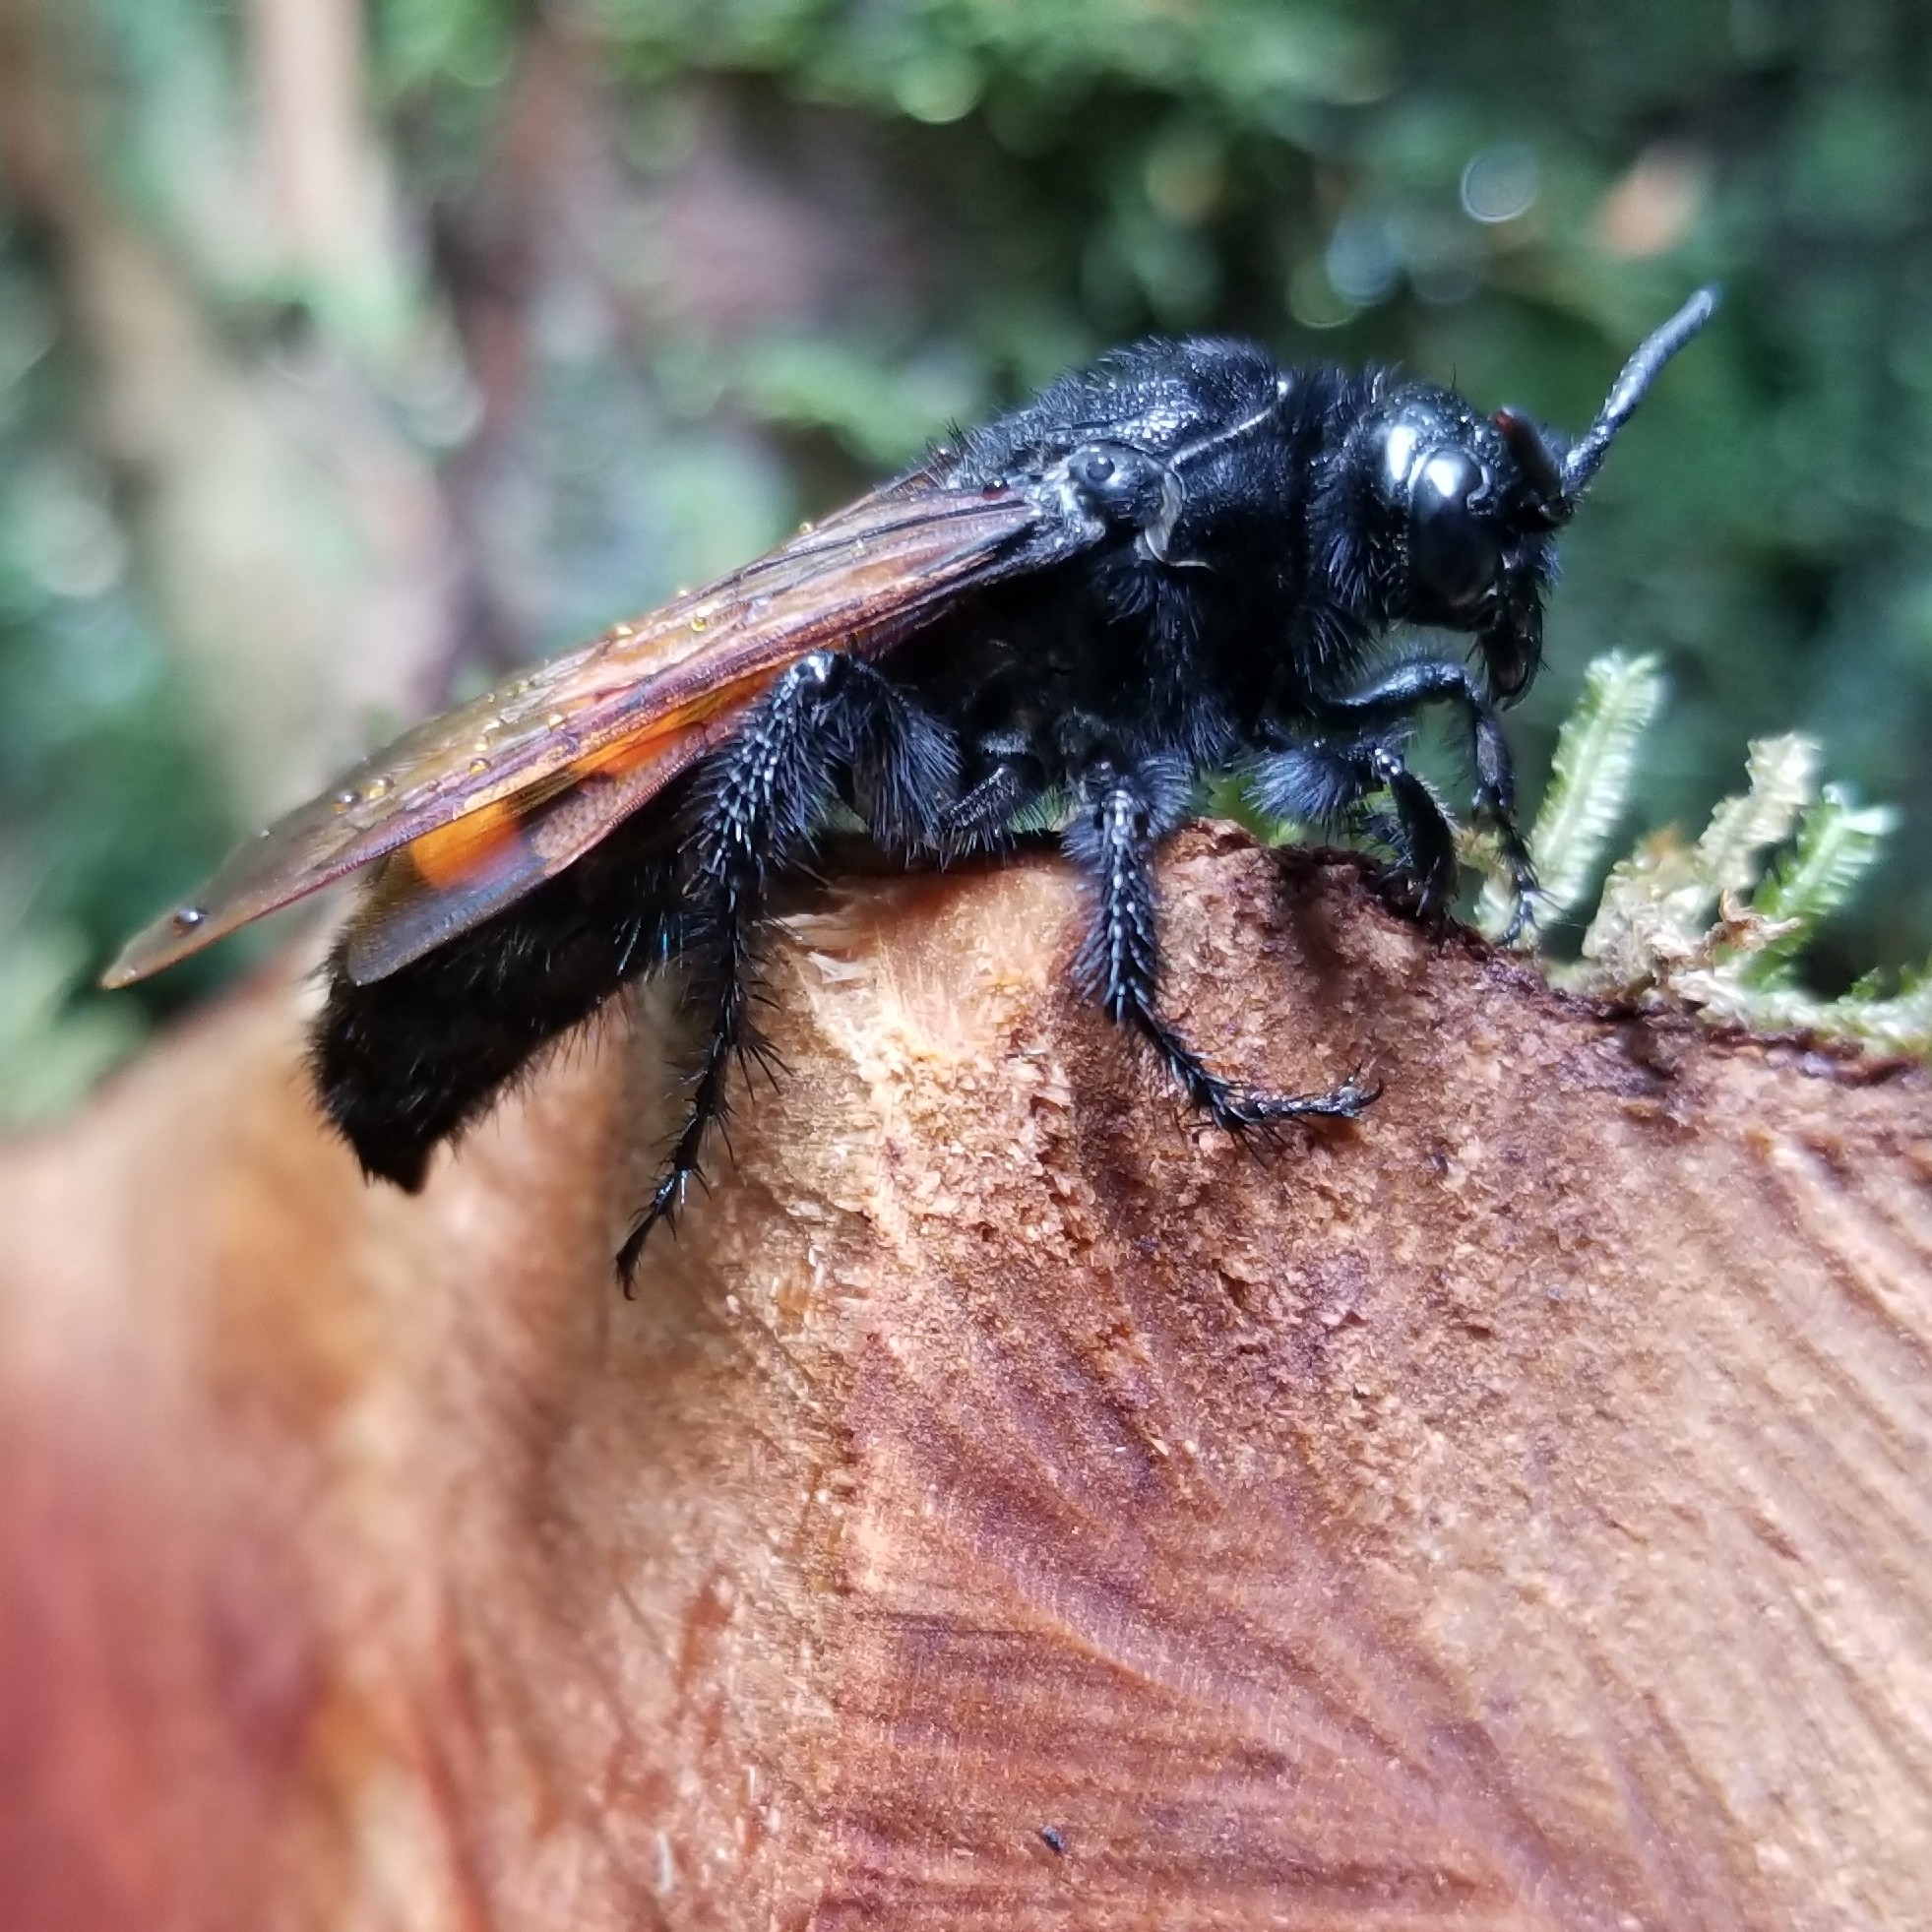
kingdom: Animalia
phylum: Arthropoda
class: Insecta
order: Hymenoptera
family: Scoliidae
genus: Pygodasis
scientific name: Pygodasis ephippium
